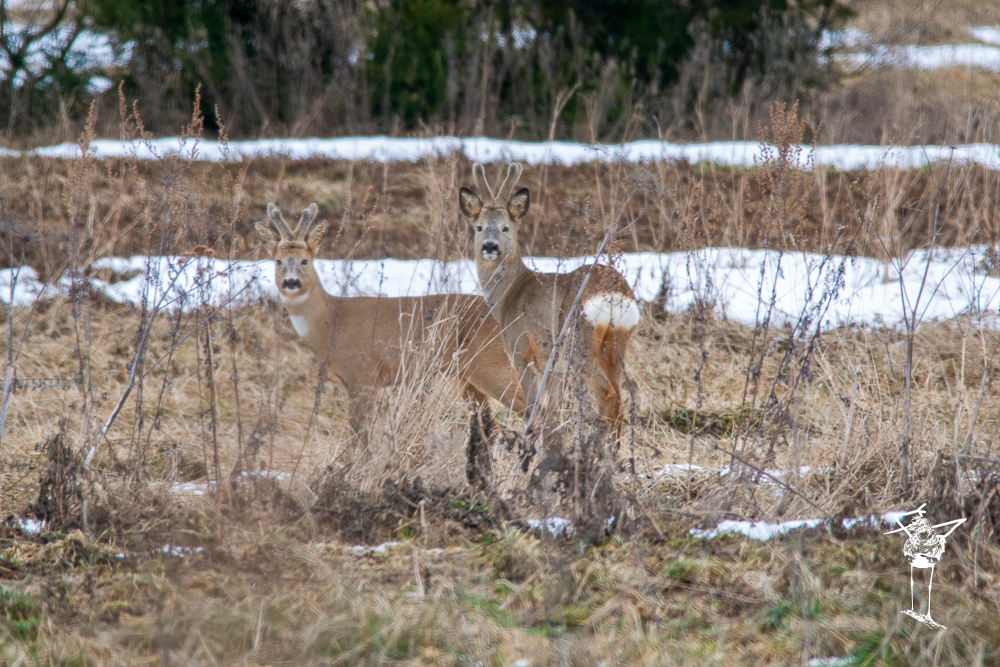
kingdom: Animalia
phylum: Chordata
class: Mammalia
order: Artiodactyla
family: Cervidae
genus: Capreolus
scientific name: Capreolus capreolus
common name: Western roe deer
